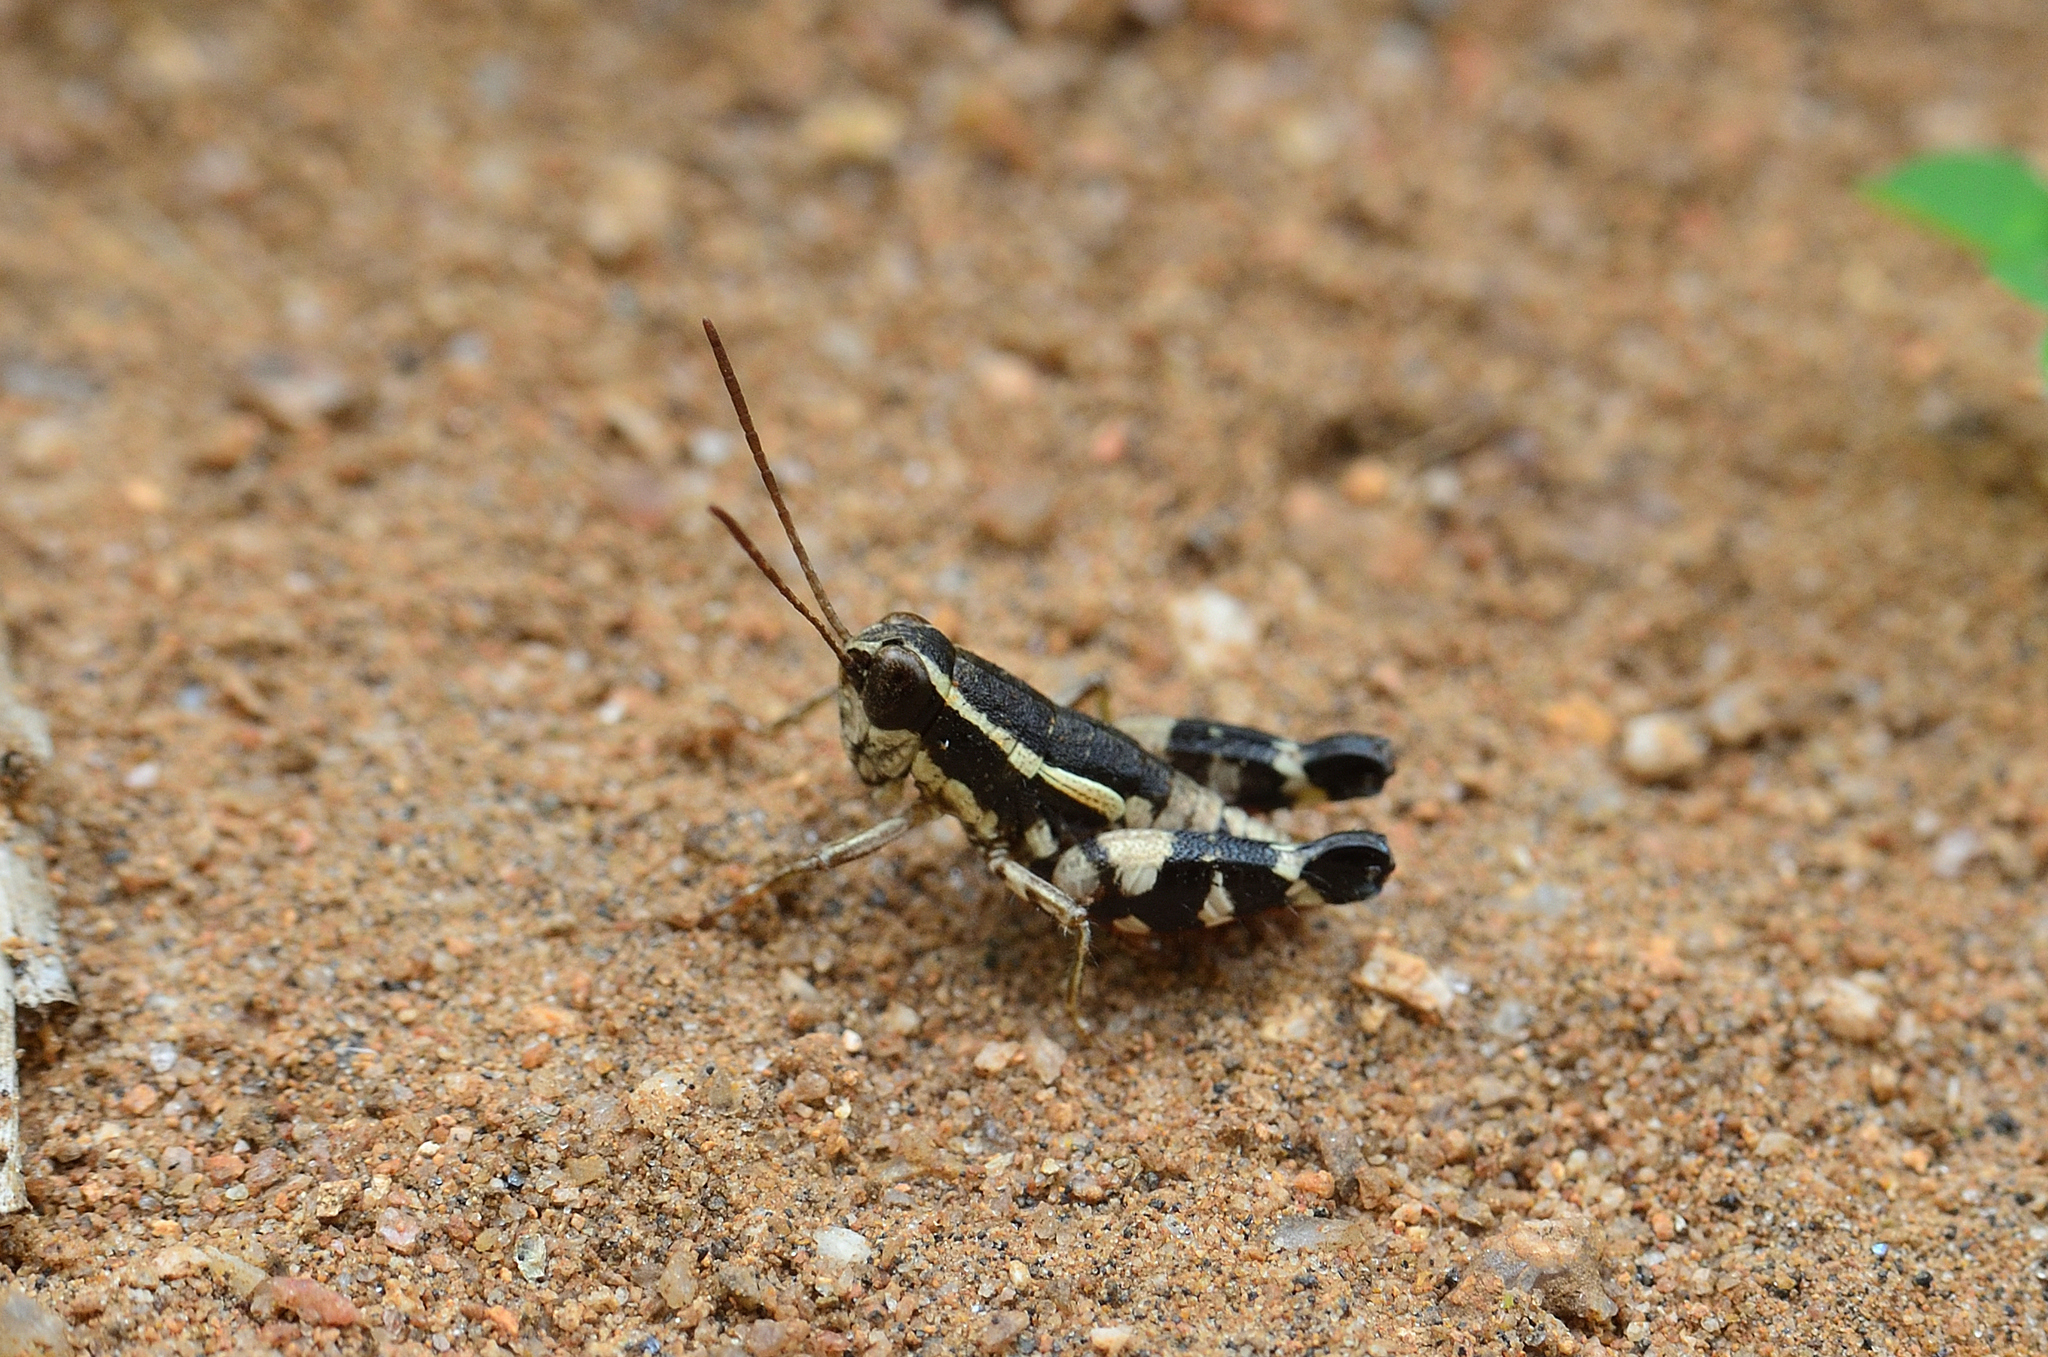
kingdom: Animalia
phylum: Arthropoda
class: Insecta
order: Orthoptera
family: Acrididae
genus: Opharicus
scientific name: Opharicus ballardi
